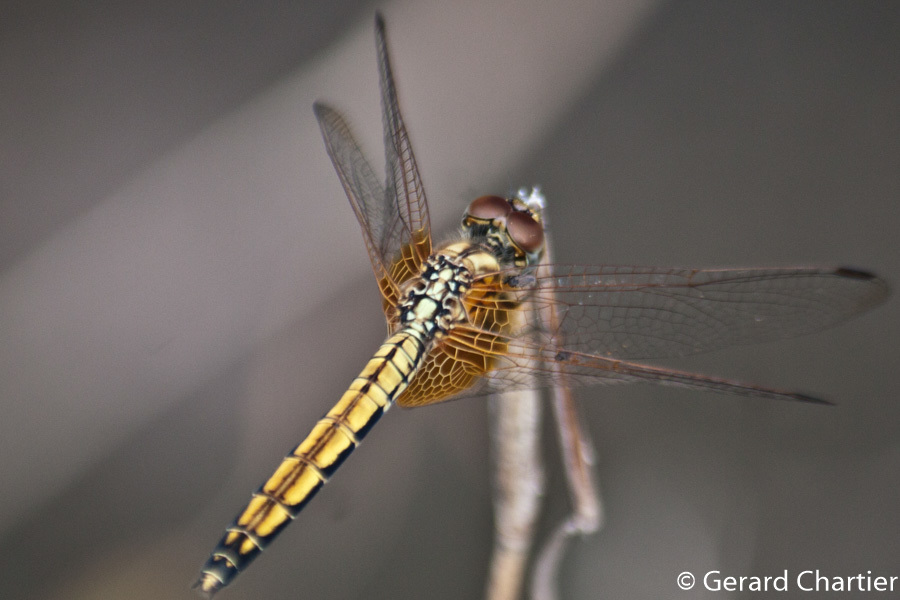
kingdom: Animalia
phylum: Arthropoda
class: Insecta
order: Odonata
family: Libellulidae
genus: Trithemis
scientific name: Trithemis aurora
